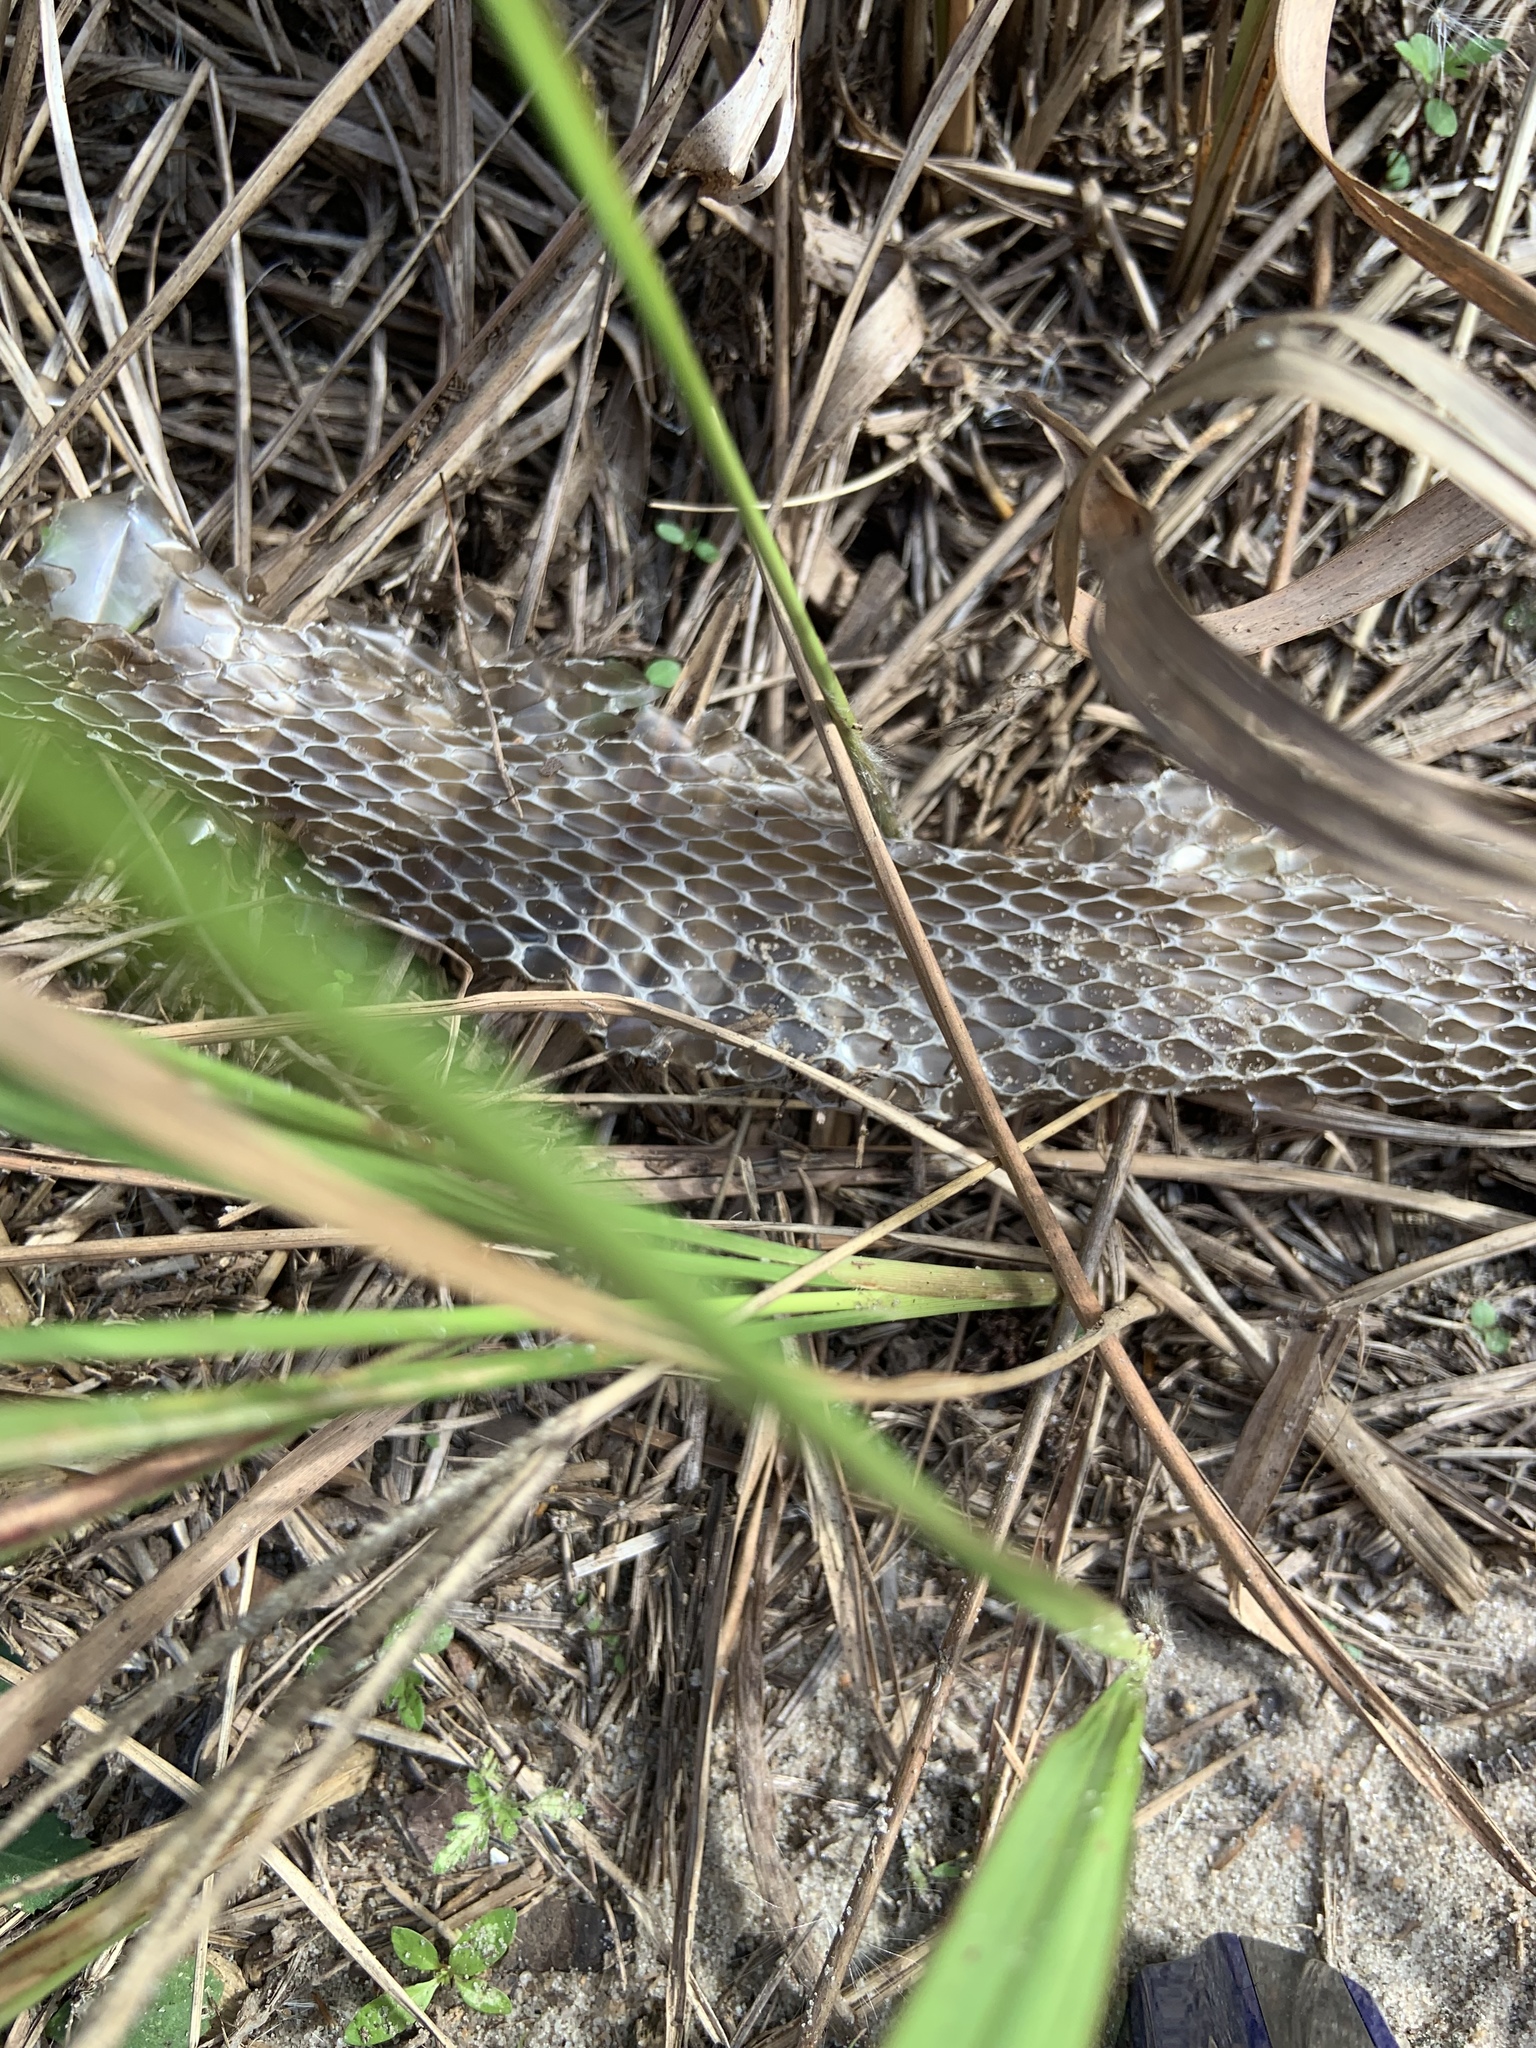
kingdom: Animalia
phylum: Chordata
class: Squamata
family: Colubridae
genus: Coluber
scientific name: Coluber constrictor
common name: Eastern racer
